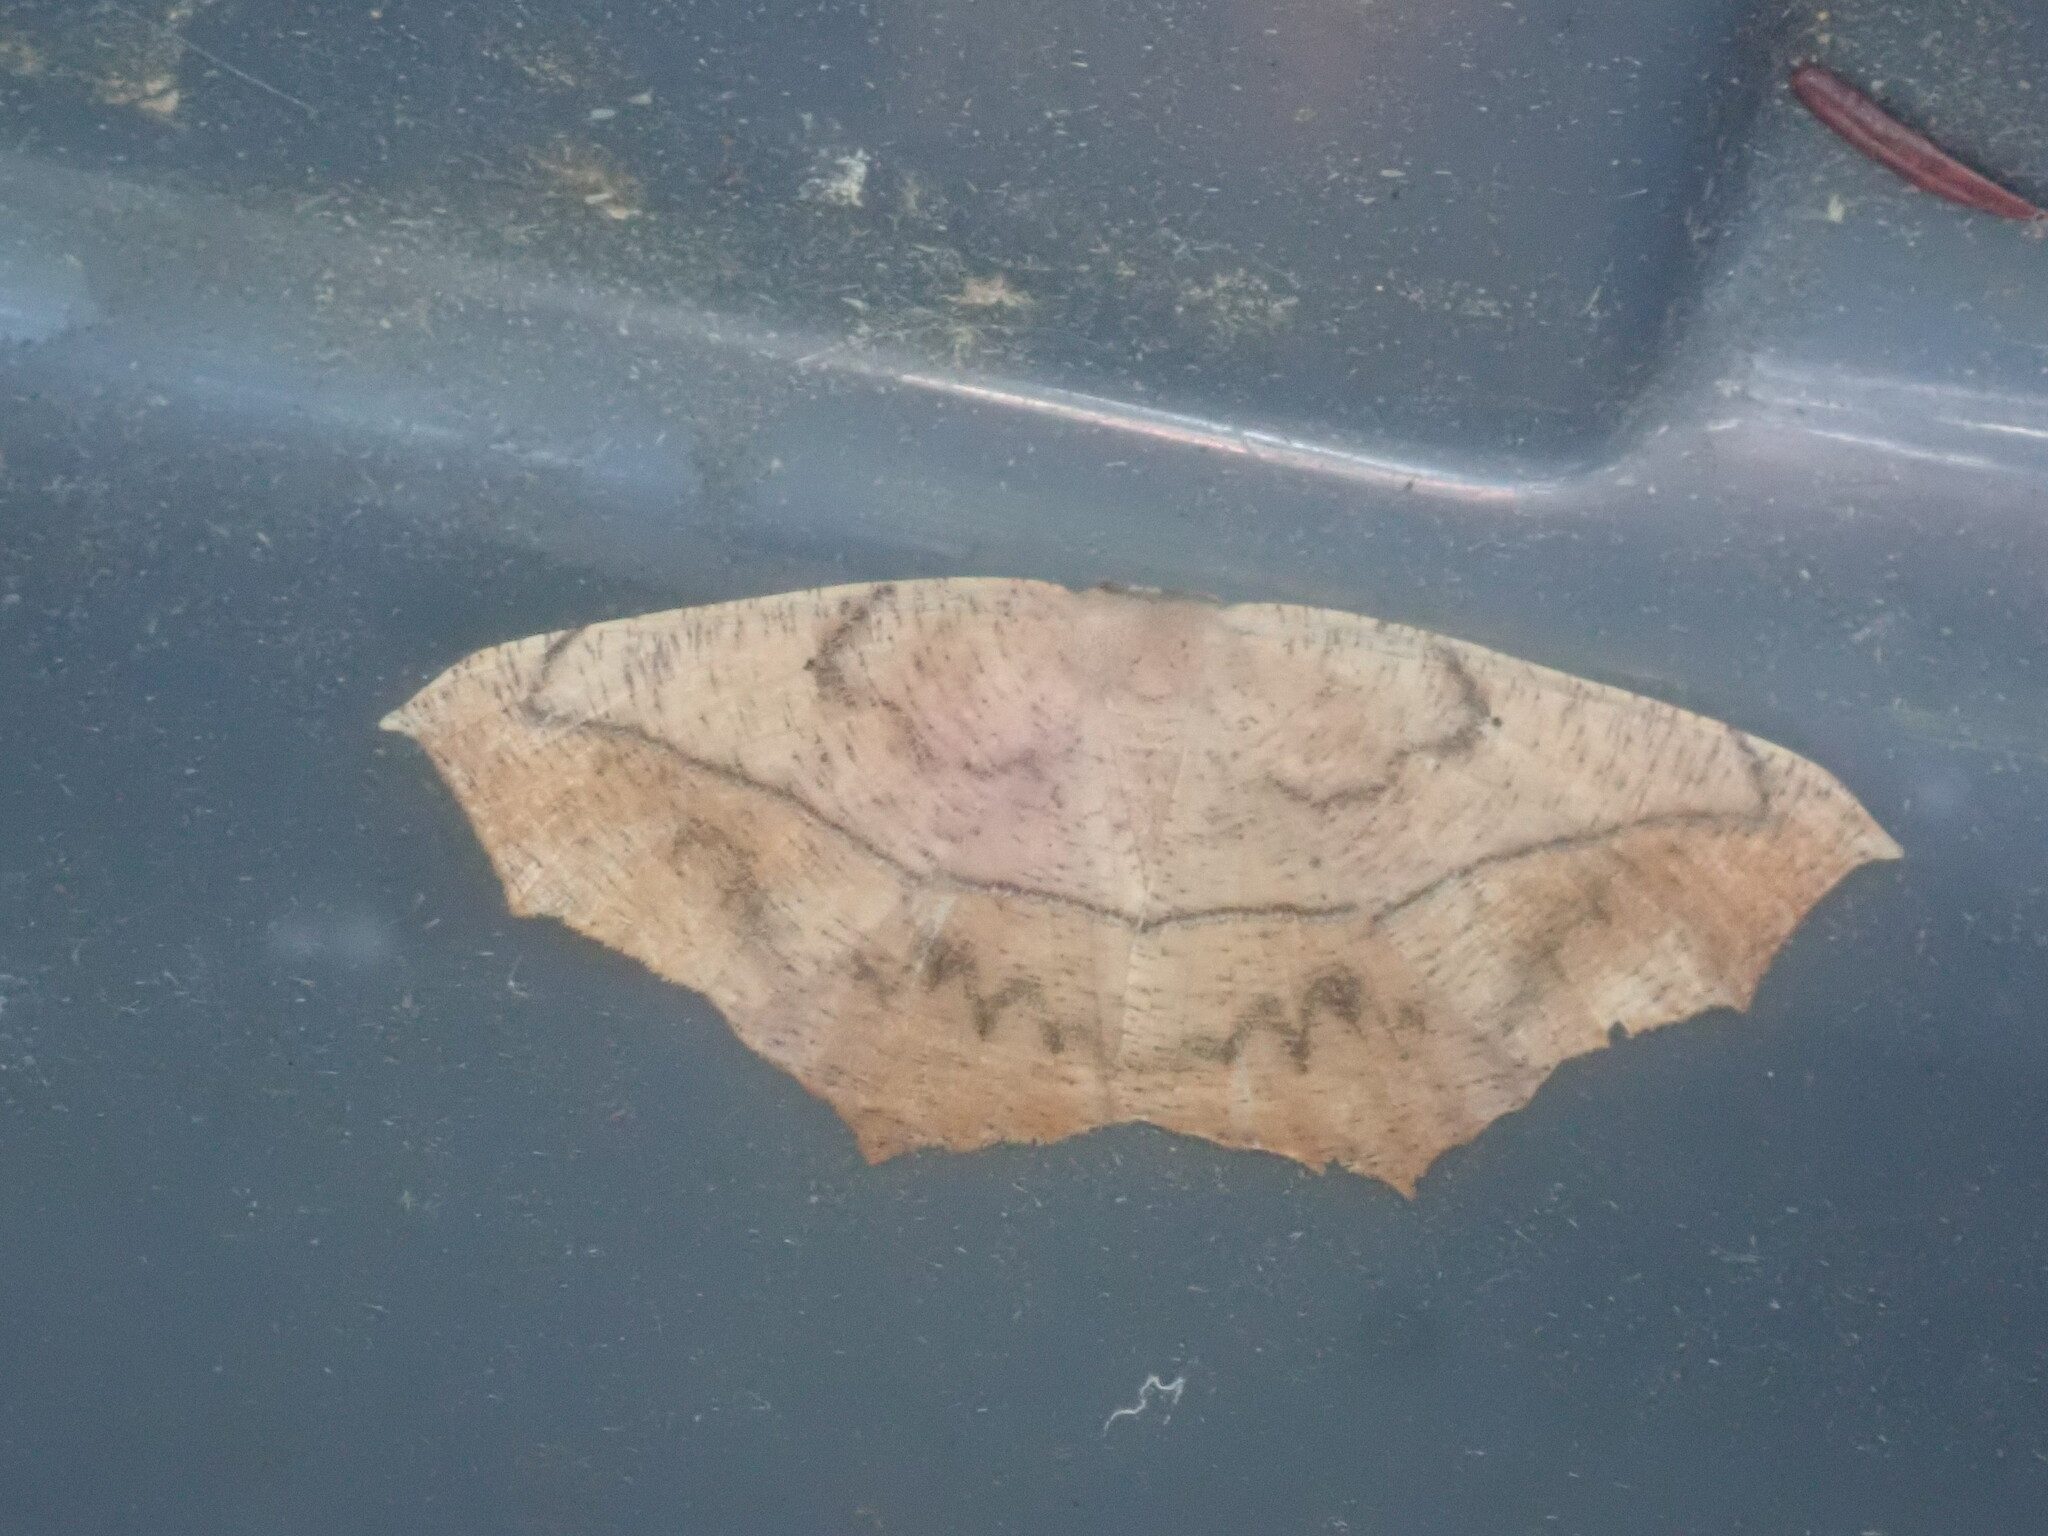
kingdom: Animalia
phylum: Arthropoda
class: Insecta
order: Lepidoptera
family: Geometridae
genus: Prochoerodes
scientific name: Prochoerodes lineola
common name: Large maple spanworm
